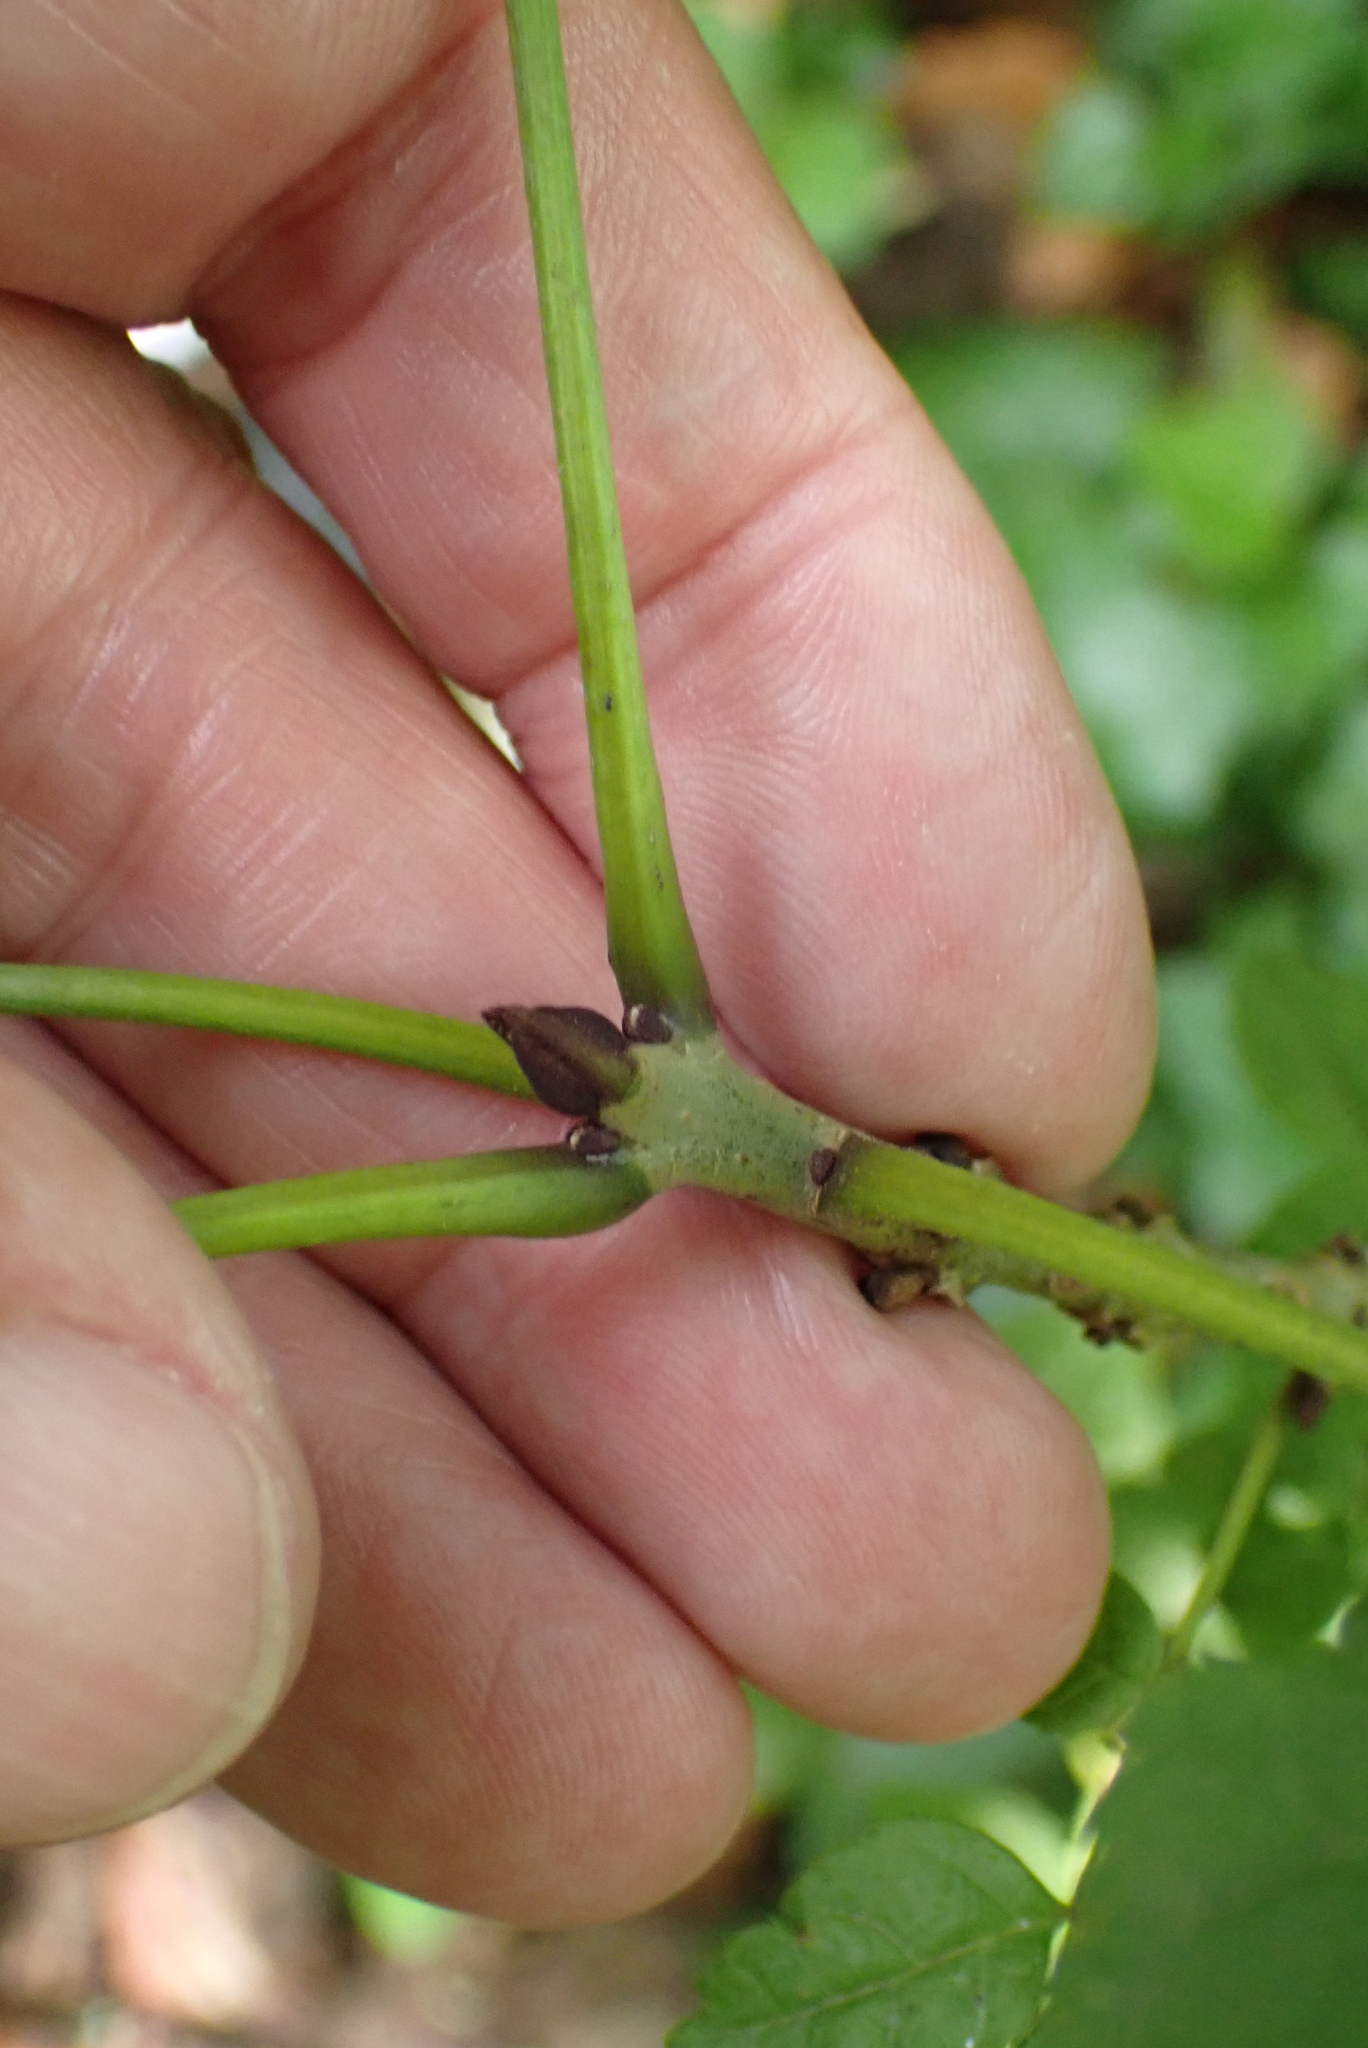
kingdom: Plantae
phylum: Tracheophyta
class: Magnoliopsida
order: Lamiales
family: Oleaceae
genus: Fraxinus
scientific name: Fraxinus excelsior
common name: European ash
